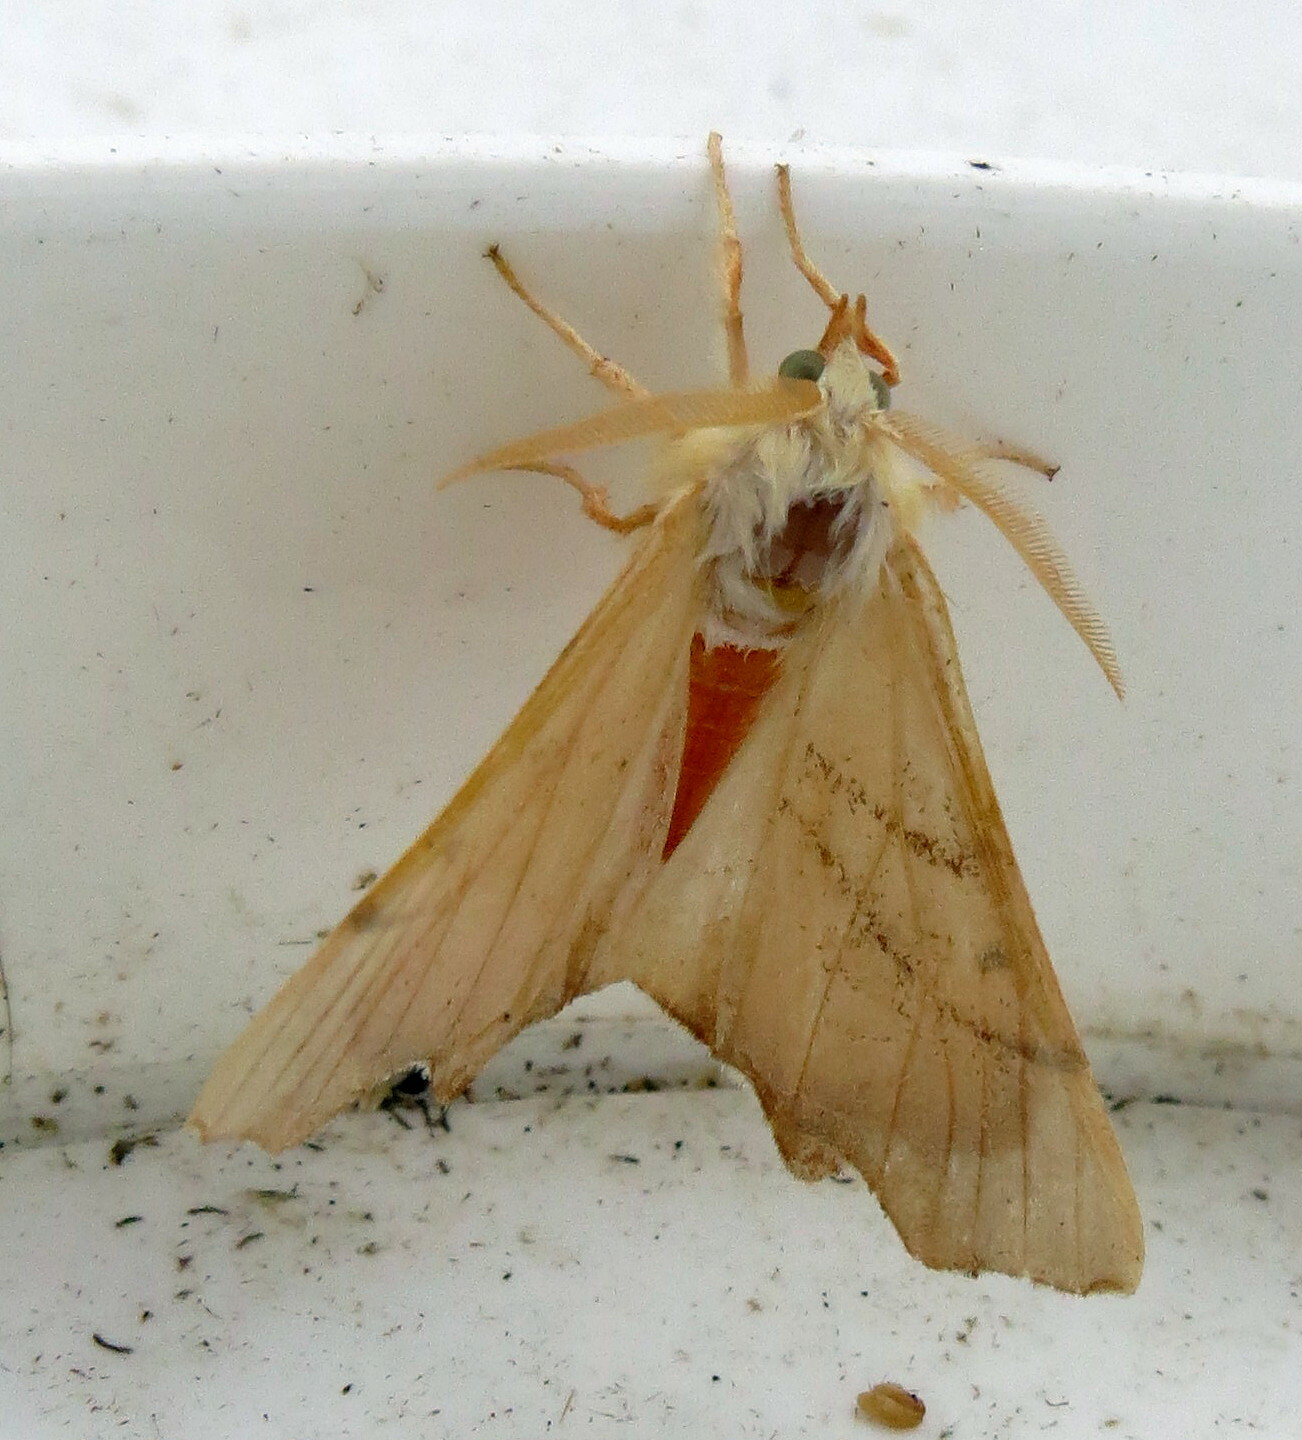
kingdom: Animalia
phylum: Arthropoda
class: Insecta
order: Lepidoptera
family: Geometridae
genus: Ennomos
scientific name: Ennomos erosaria
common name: September thorn
